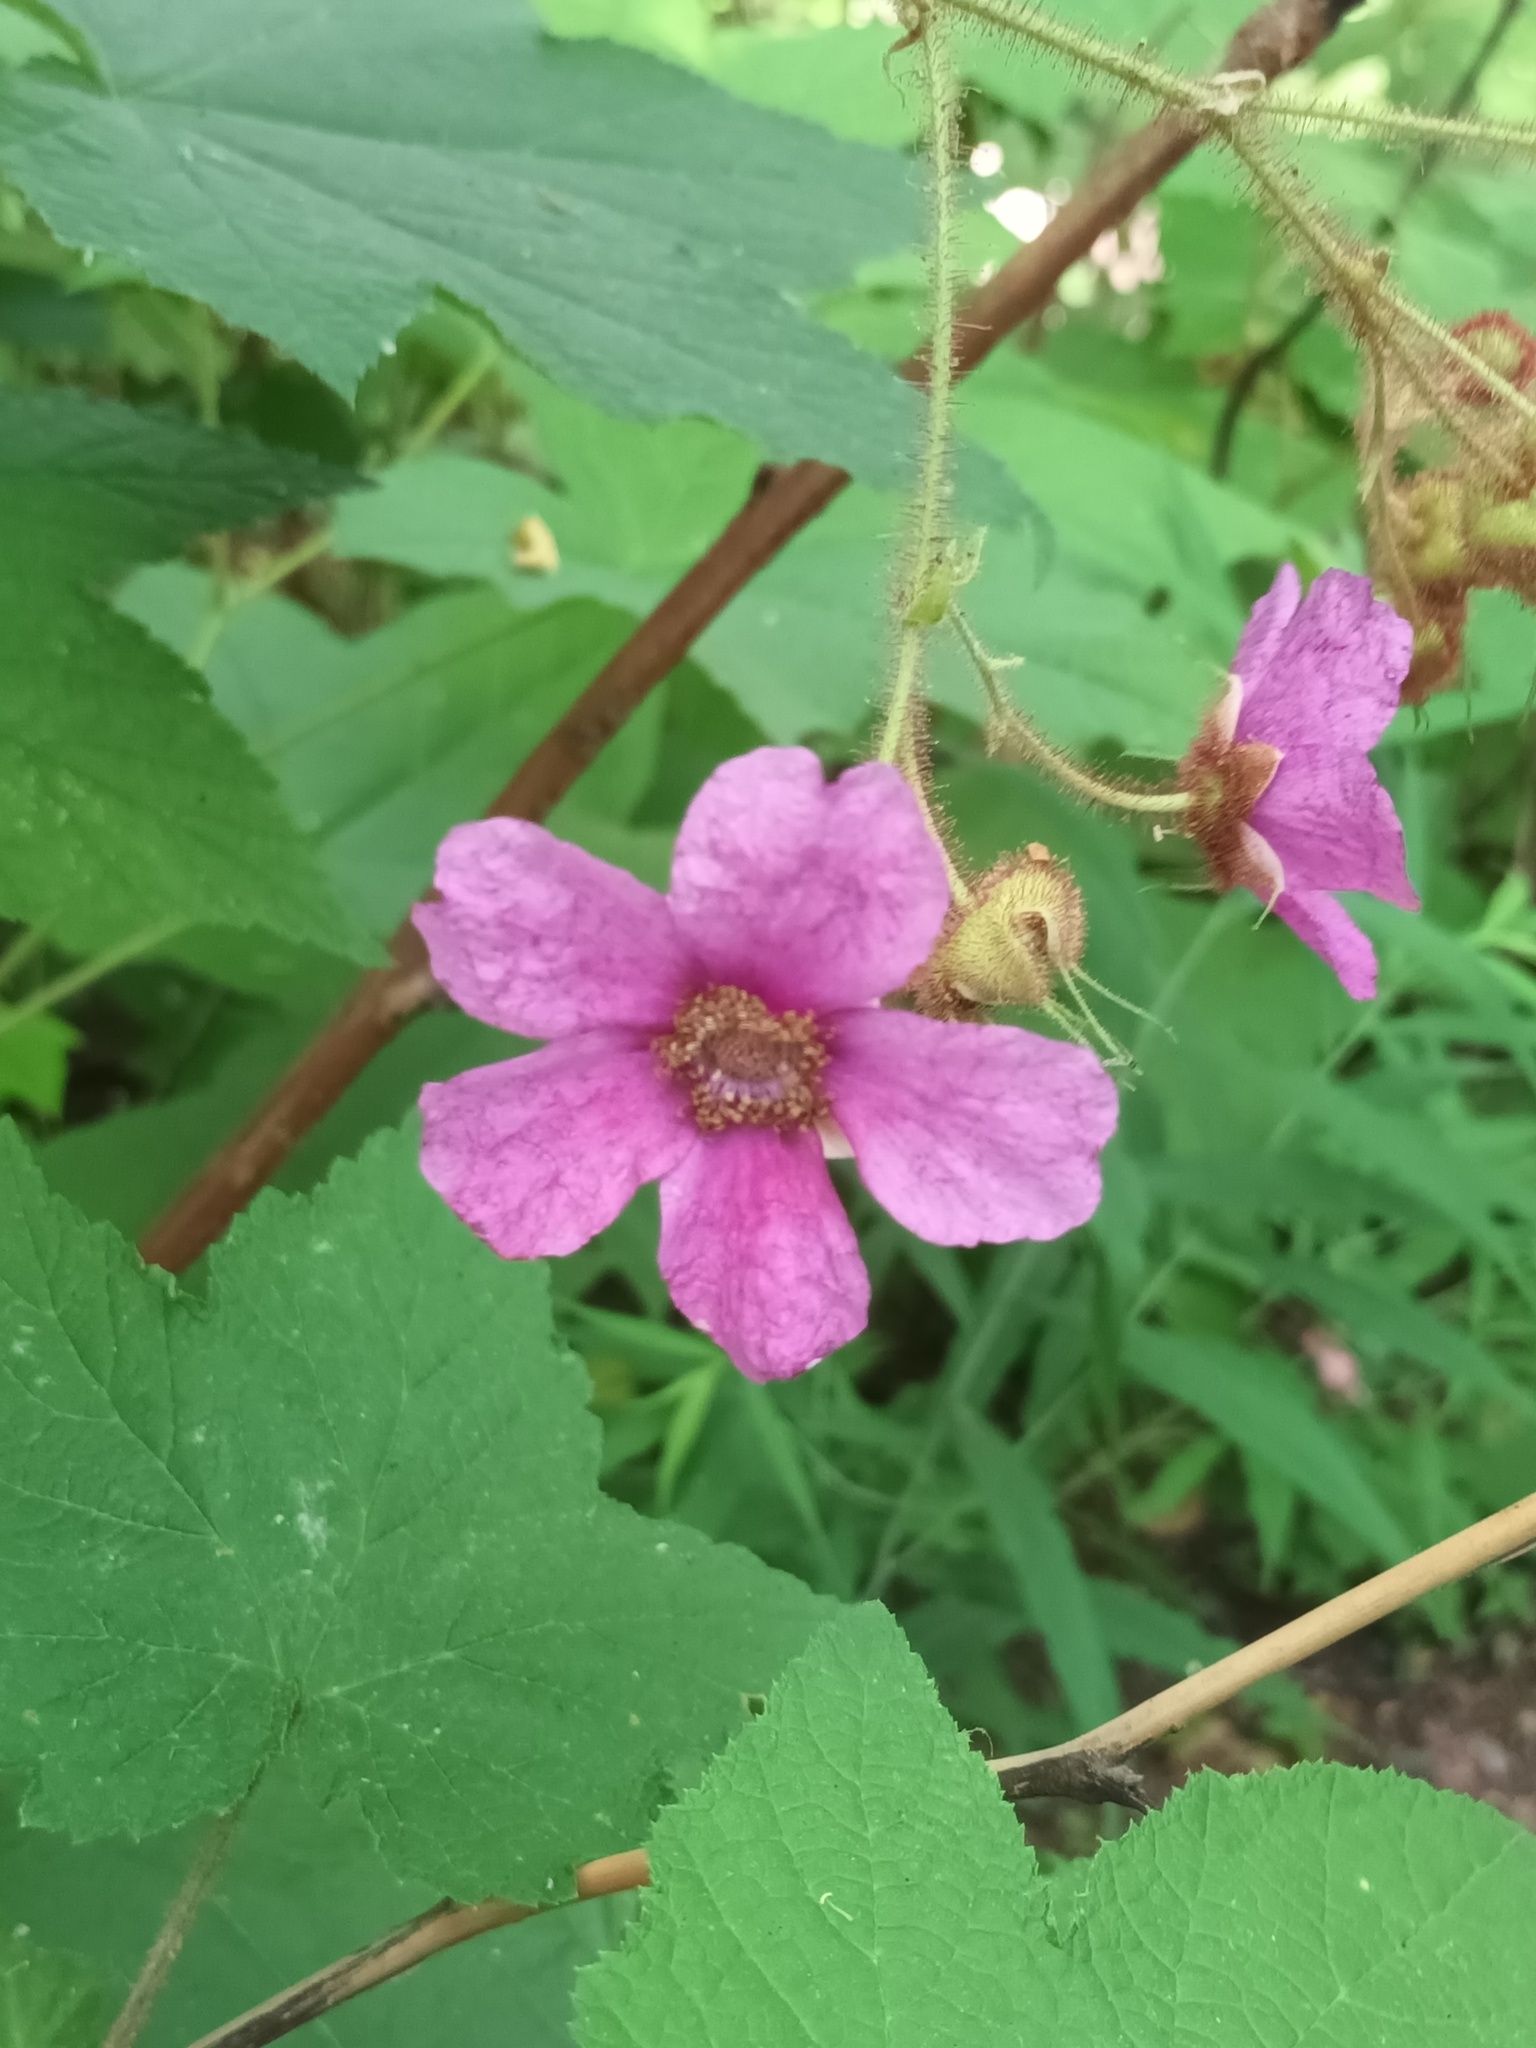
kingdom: Plantae
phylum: Tracheophyta
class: Magnoliopsida
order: Rosales
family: Rosaceae
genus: Rubus
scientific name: Rubus odoratus
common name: Purple-flowered raspberry
